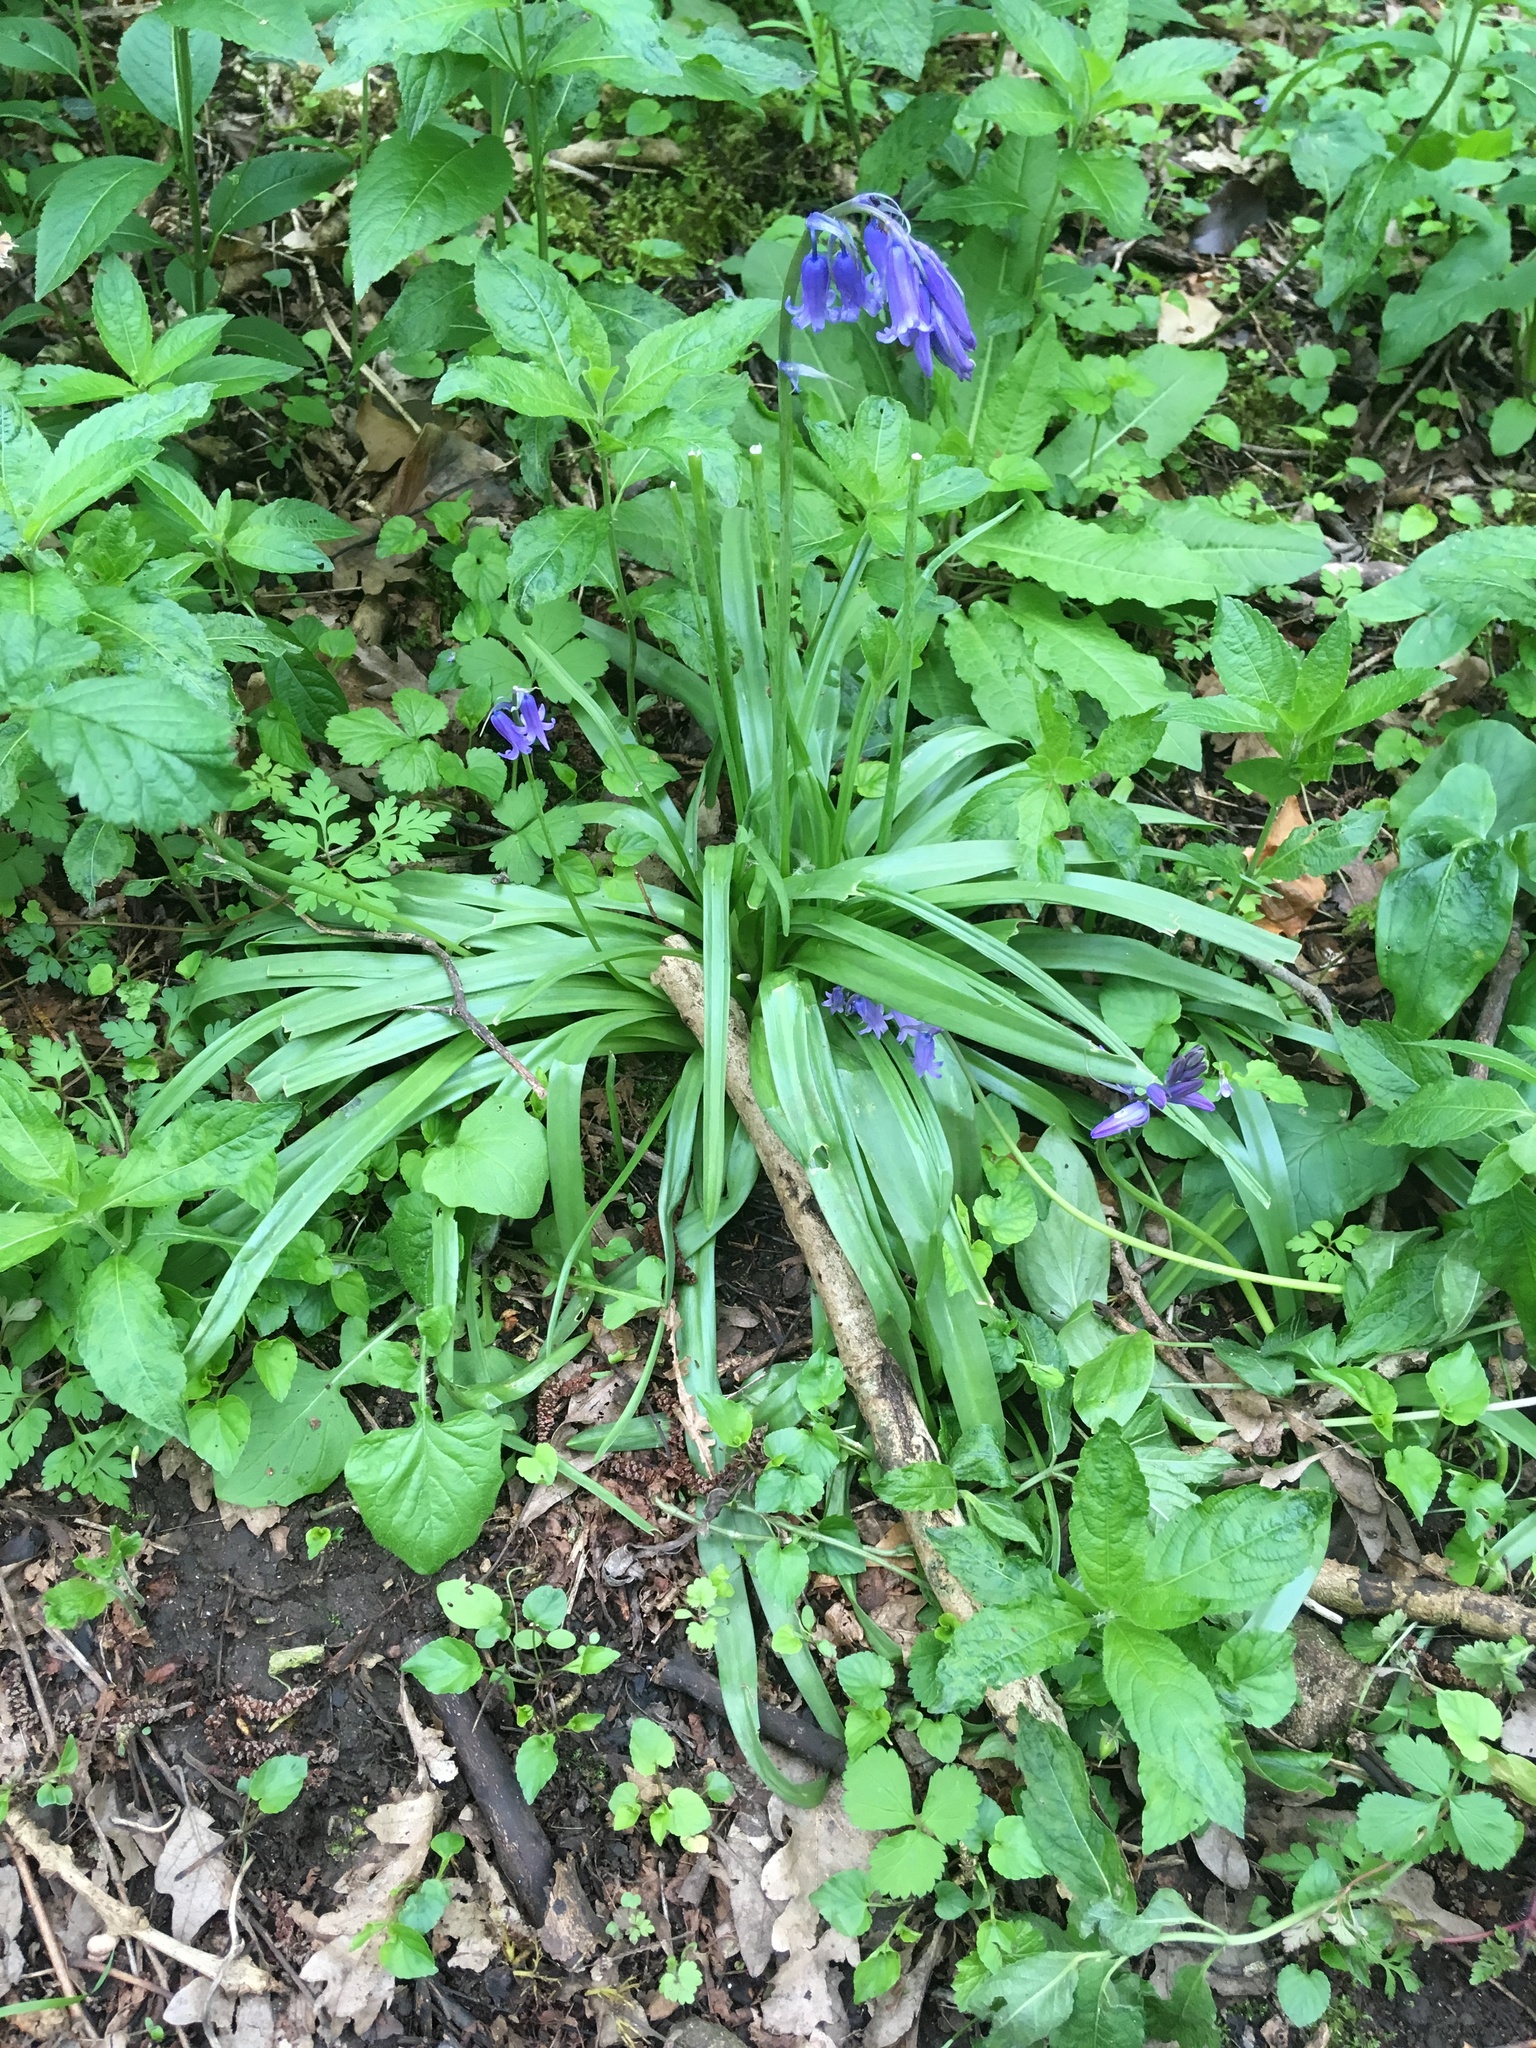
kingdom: Plantae
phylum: Tracheophyta
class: Liliopsida
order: Asparagales
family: Asparagaceae
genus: Hyacinthoides
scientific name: Hyacinthoides non-scripta
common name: Bluebell
